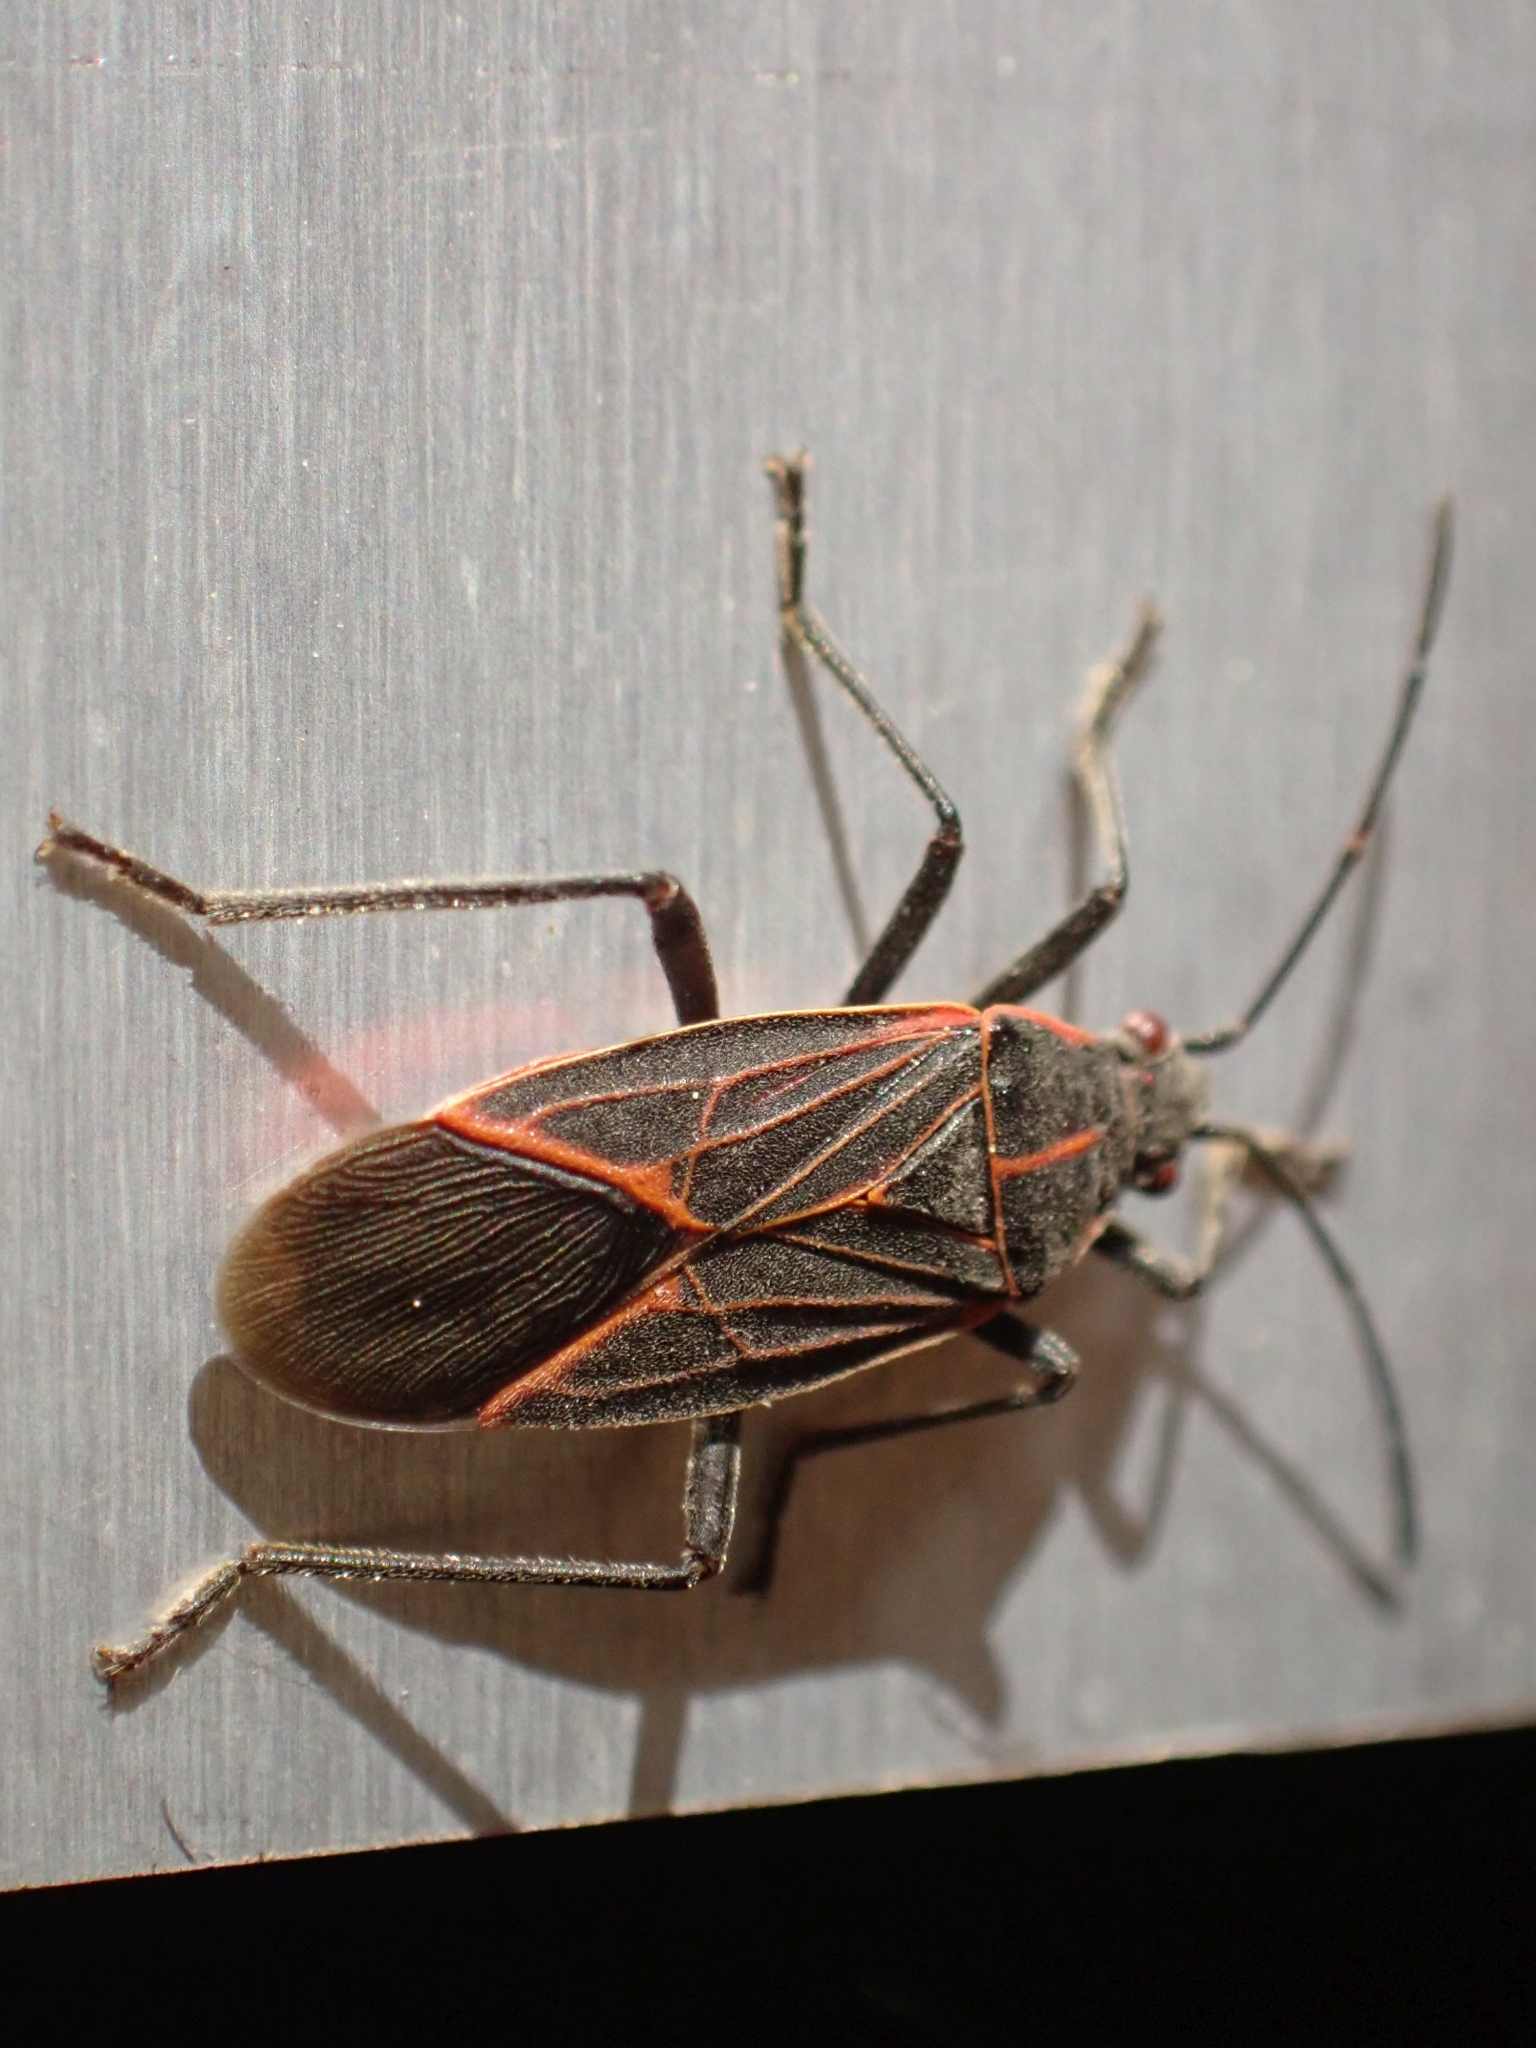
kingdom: Animalia
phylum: Arthropoda
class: Insecta
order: Hemiptera
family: Rhopalidae
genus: Boisea
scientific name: Boisea rubrolineata
